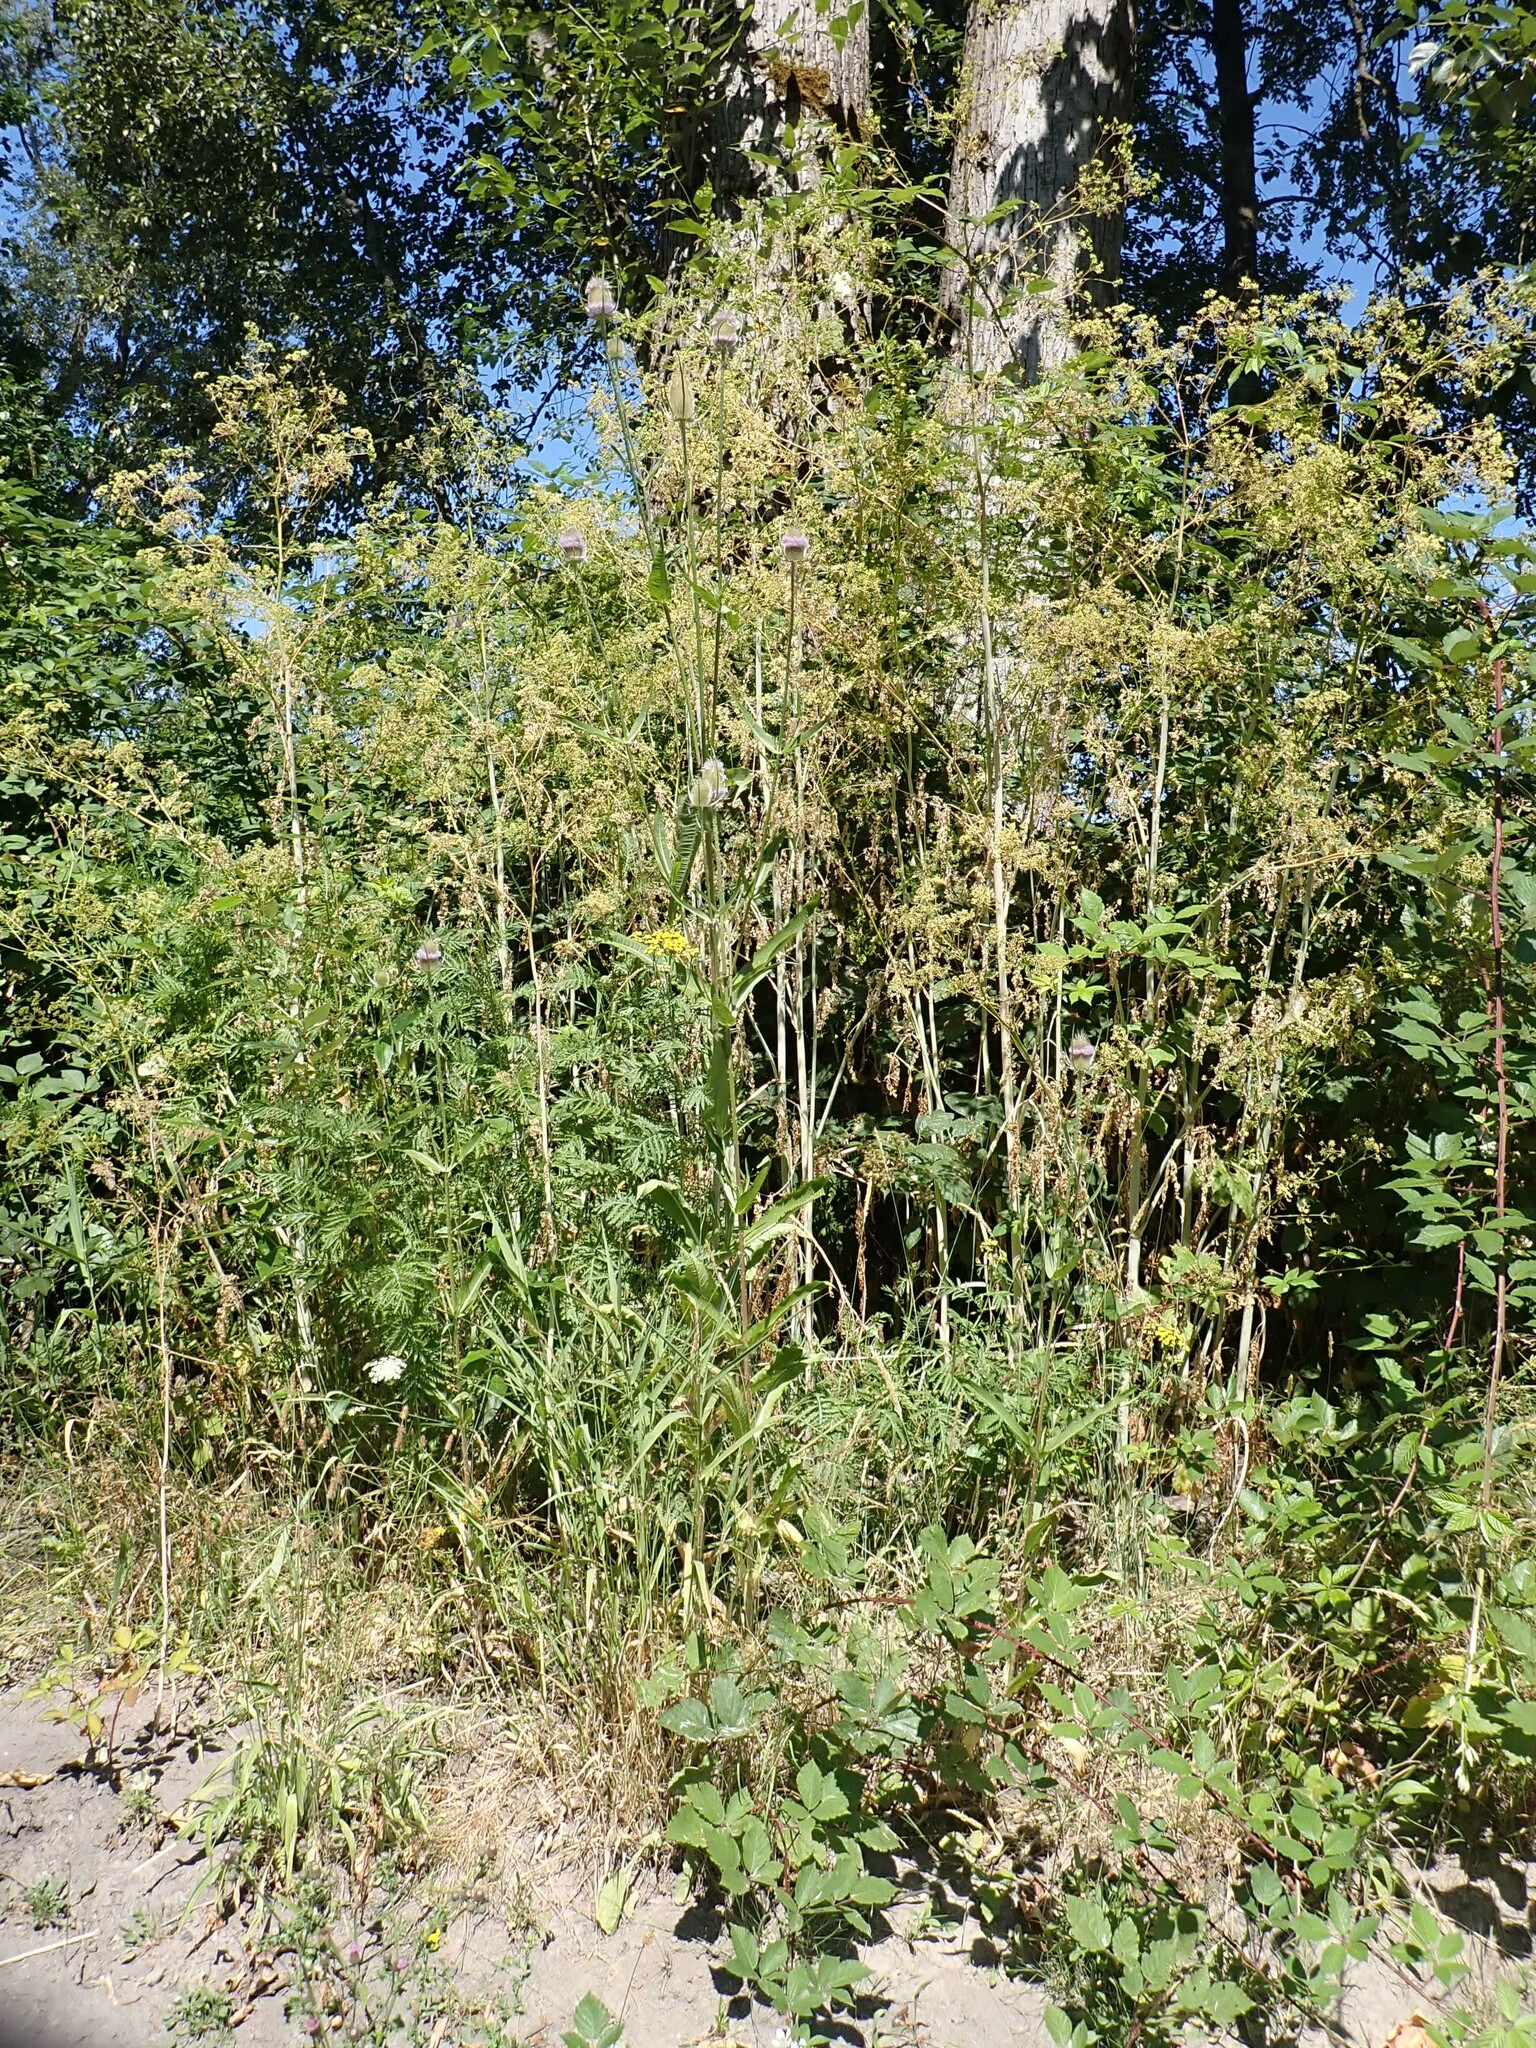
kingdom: Plantae
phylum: Tracheophyta
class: Magnoliopsida
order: Dipsacales
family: Caprifoliaceae
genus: Dipsacus
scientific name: Dipsacus fullonum
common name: Teasel
